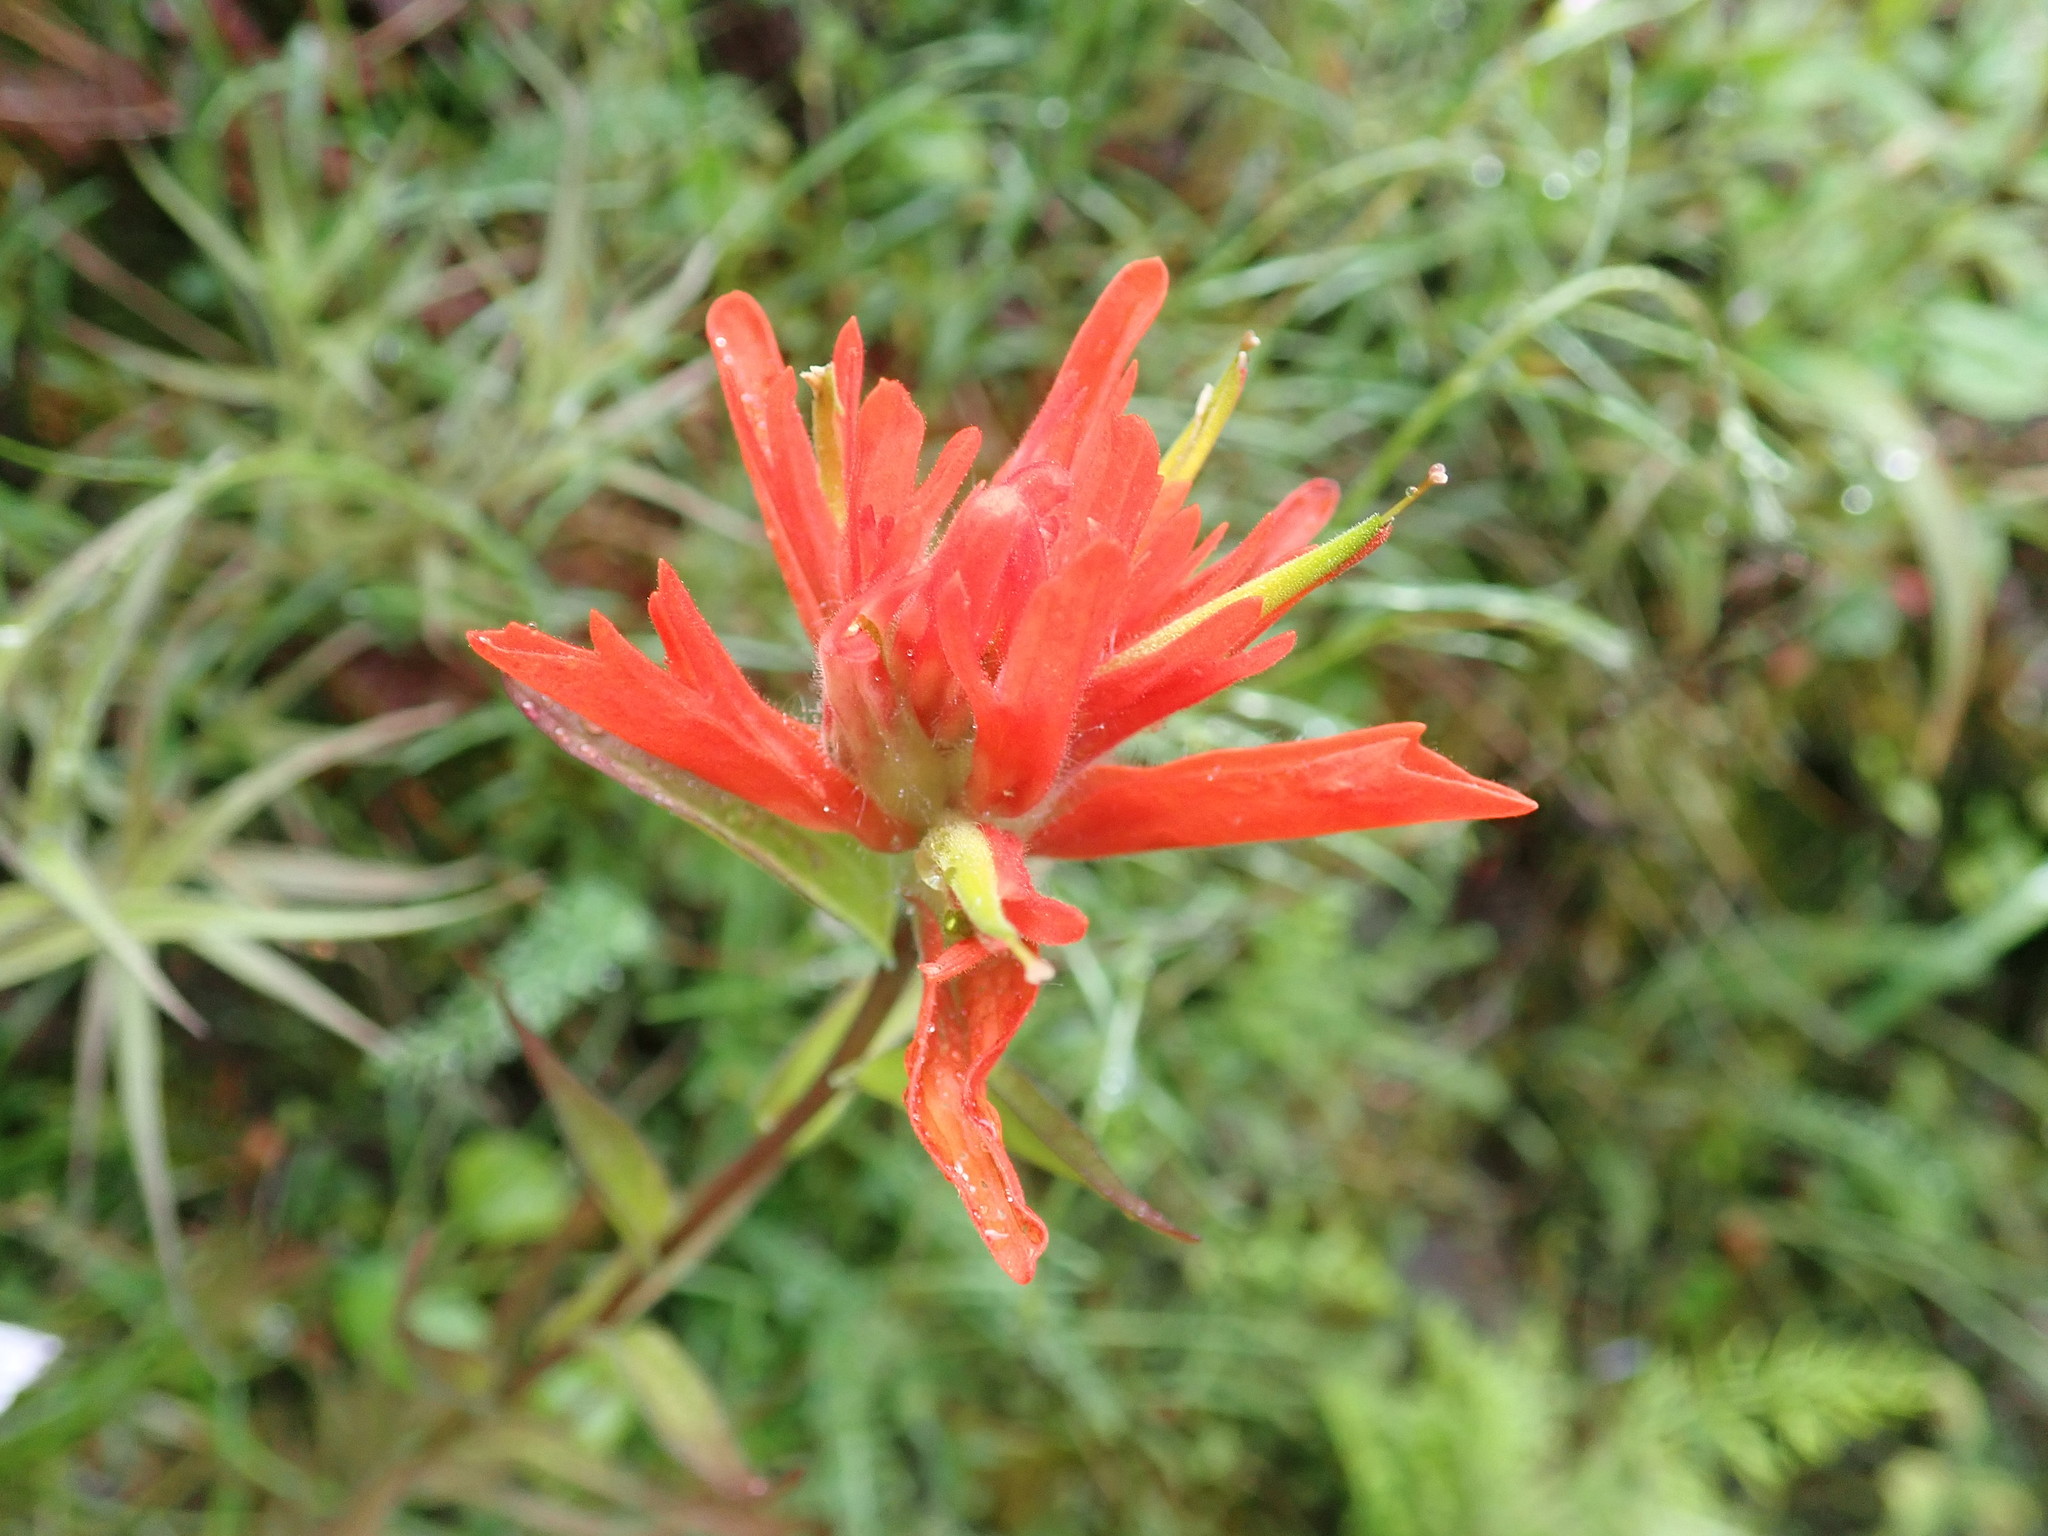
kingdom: Plantae
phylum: Tracheophyta
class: Magnoliopsida
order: Lamiales
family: Orobanchaceae
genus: Castilleja
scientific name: Castilleja miniata
